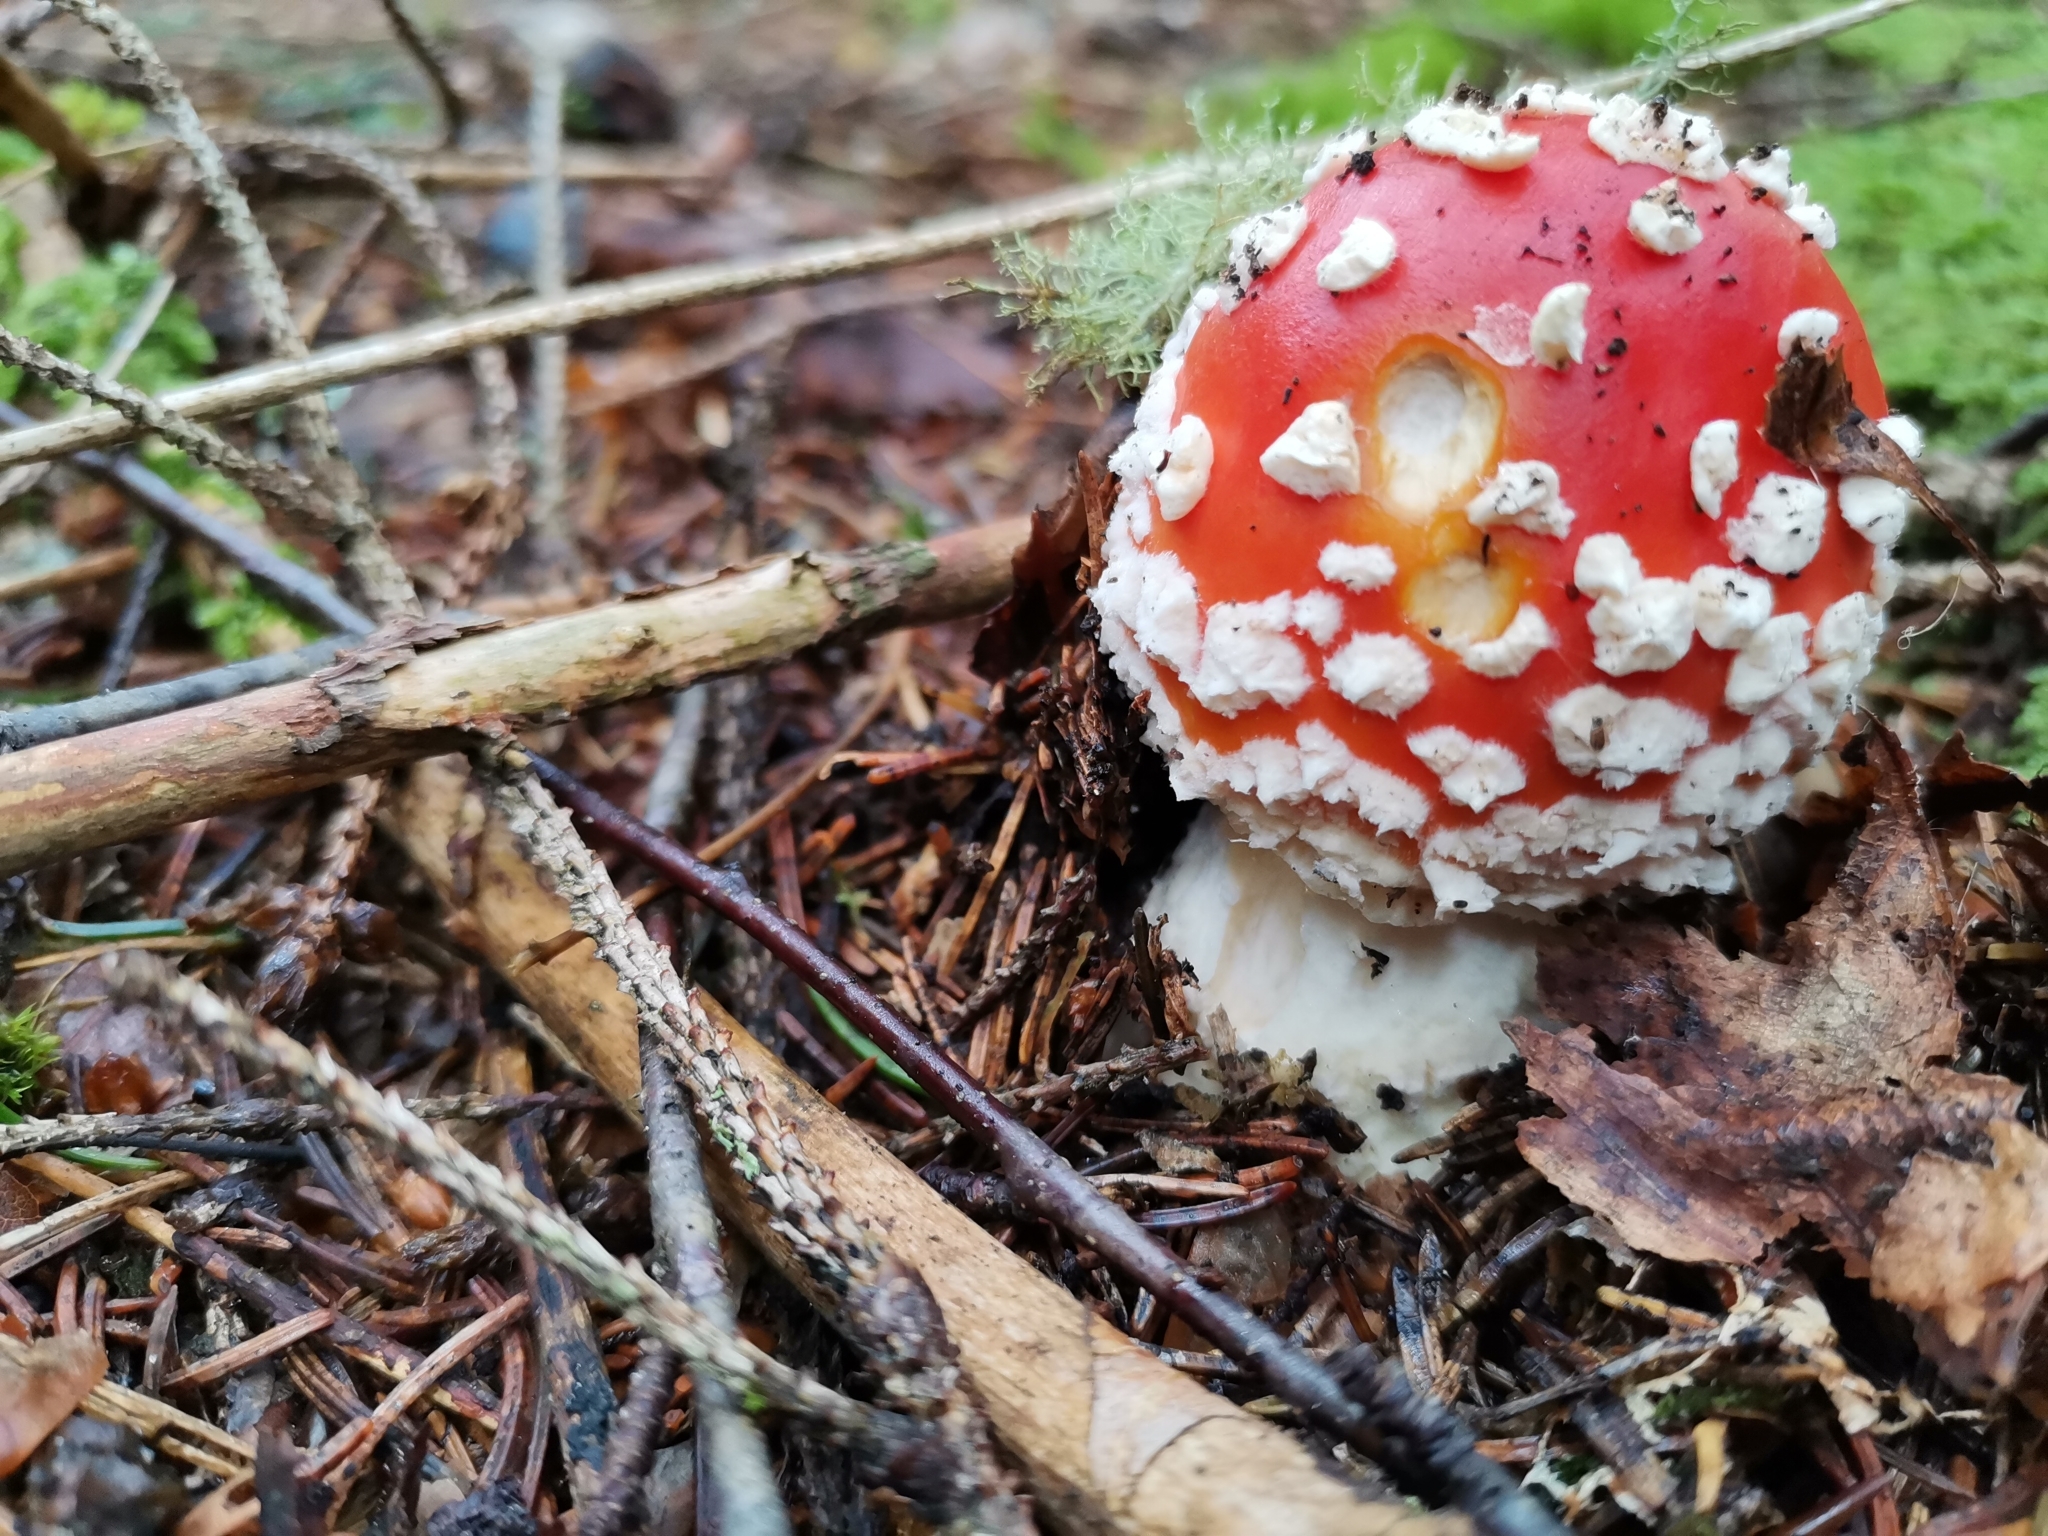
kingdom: Fungi
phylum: Basidiomycota
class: Agaricomycetes
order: Agaricales
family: Amanitaceae
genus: Amanita
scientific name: Amanita muscaria
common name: Fly agaric
